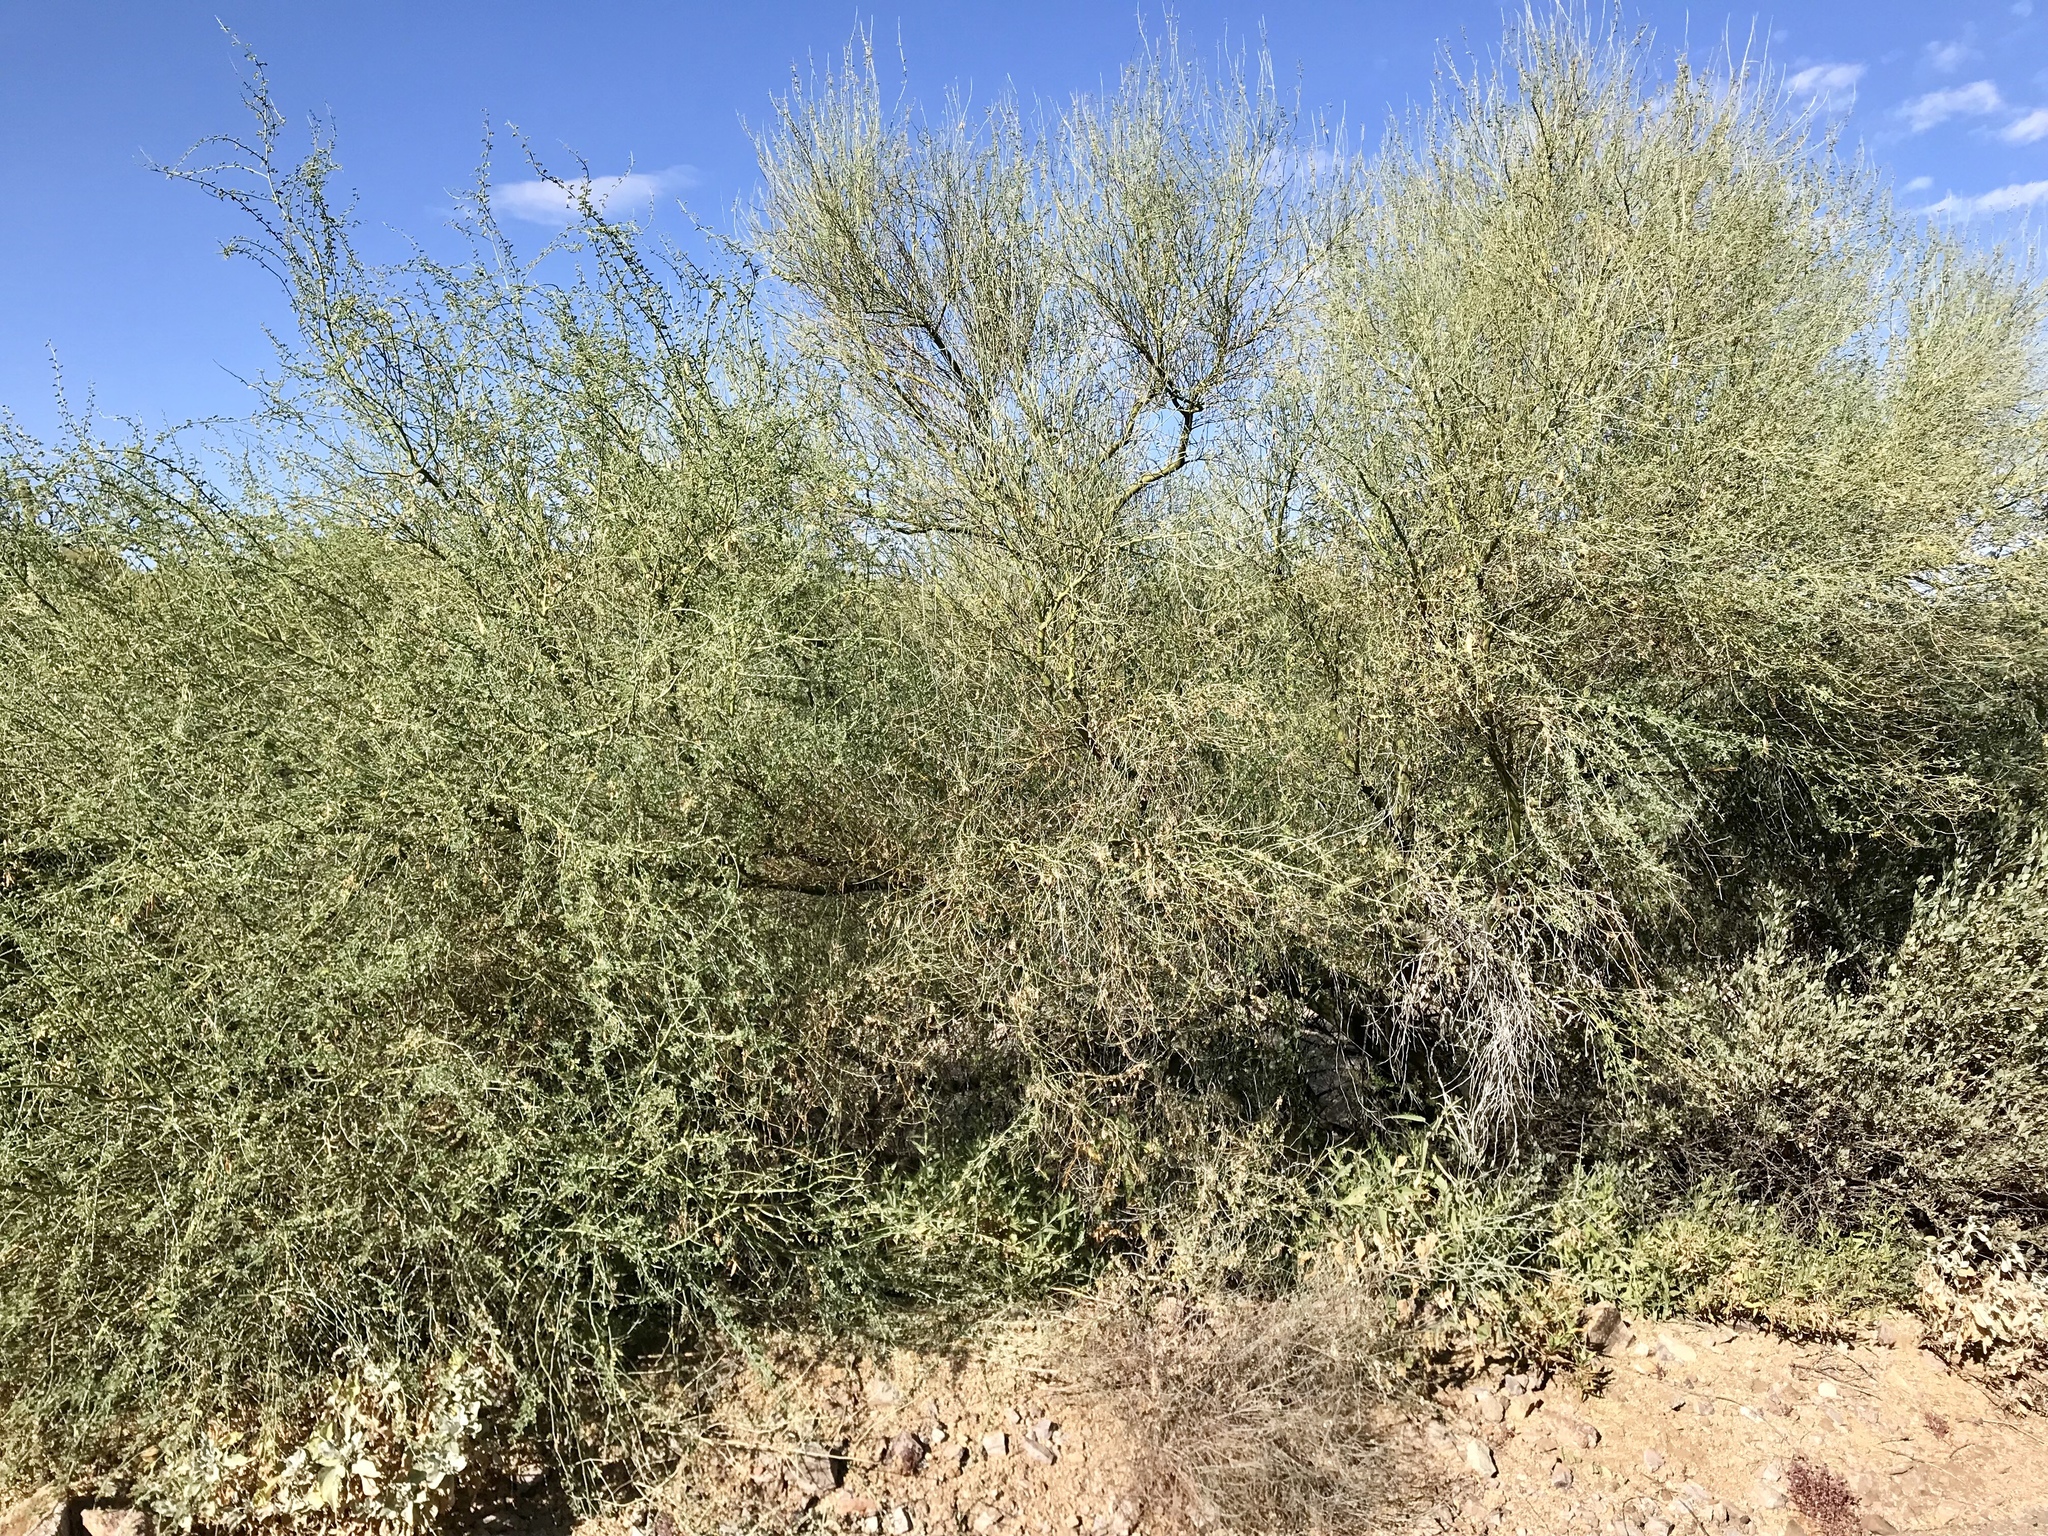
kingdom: Plantae
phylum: Tracheophyta
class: Magnoliopsida
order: Fabales
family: Fabaceae
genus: Parkinsonia
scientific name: Parkinsonia microphylla
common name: Yellow paloverde
